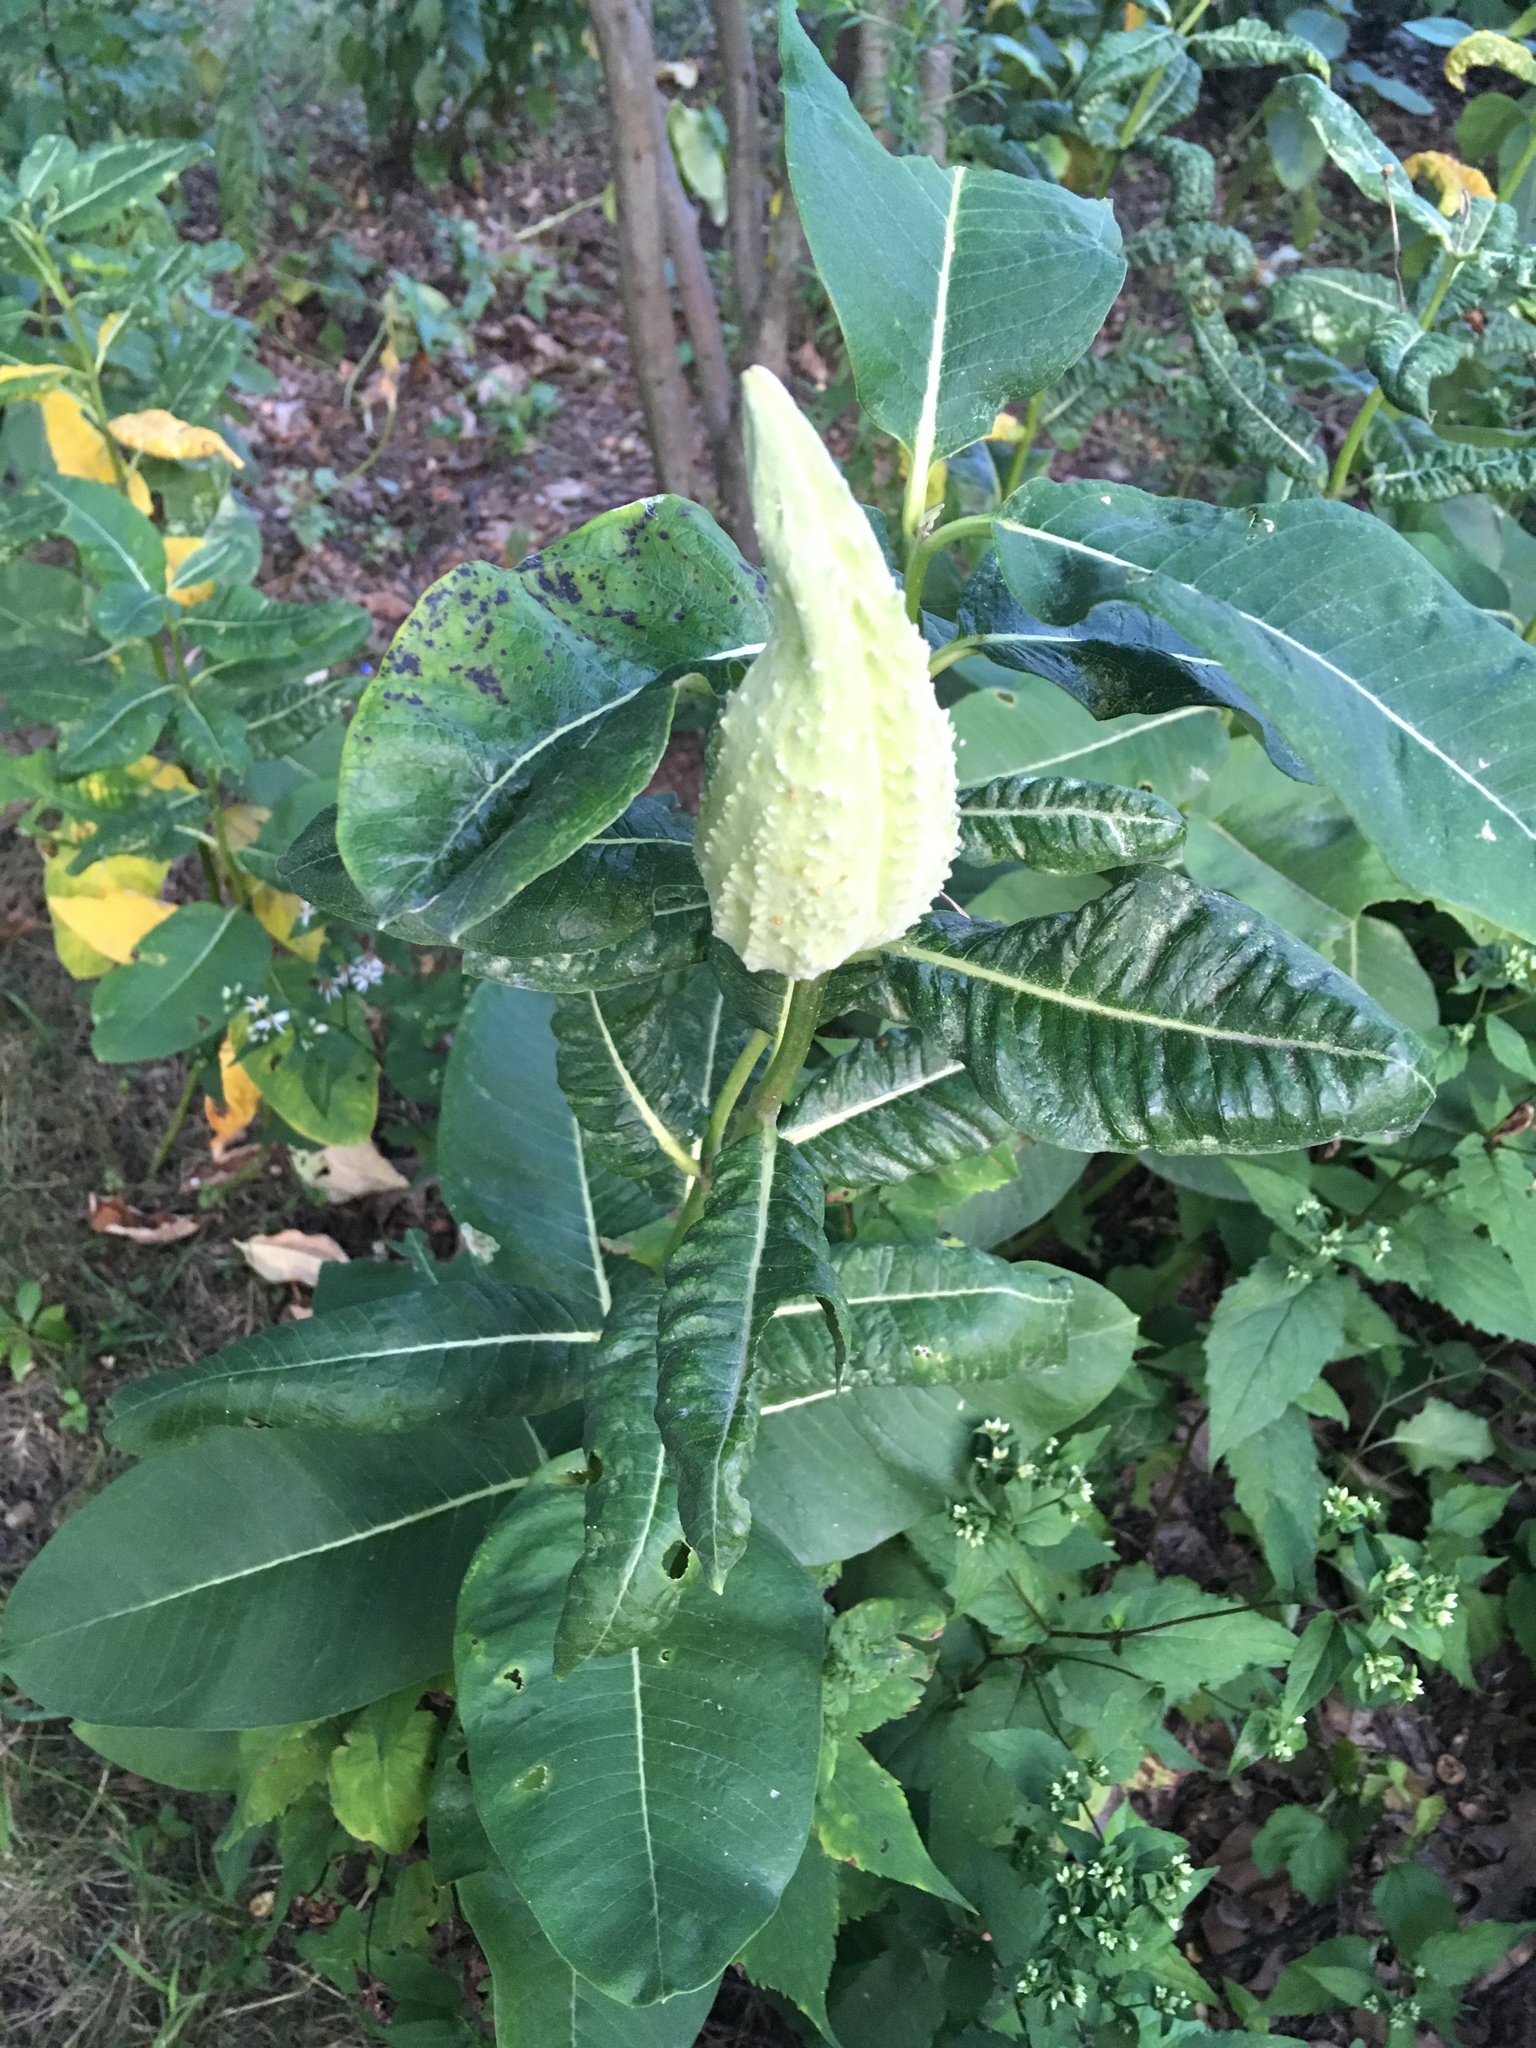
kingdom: Plantae
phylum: Tracheophyta
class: Magnoliopsida
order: Gentianales
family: Apocynaceae
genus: Asclepias
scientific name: Asclepias syriaca
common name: Common milkweed
